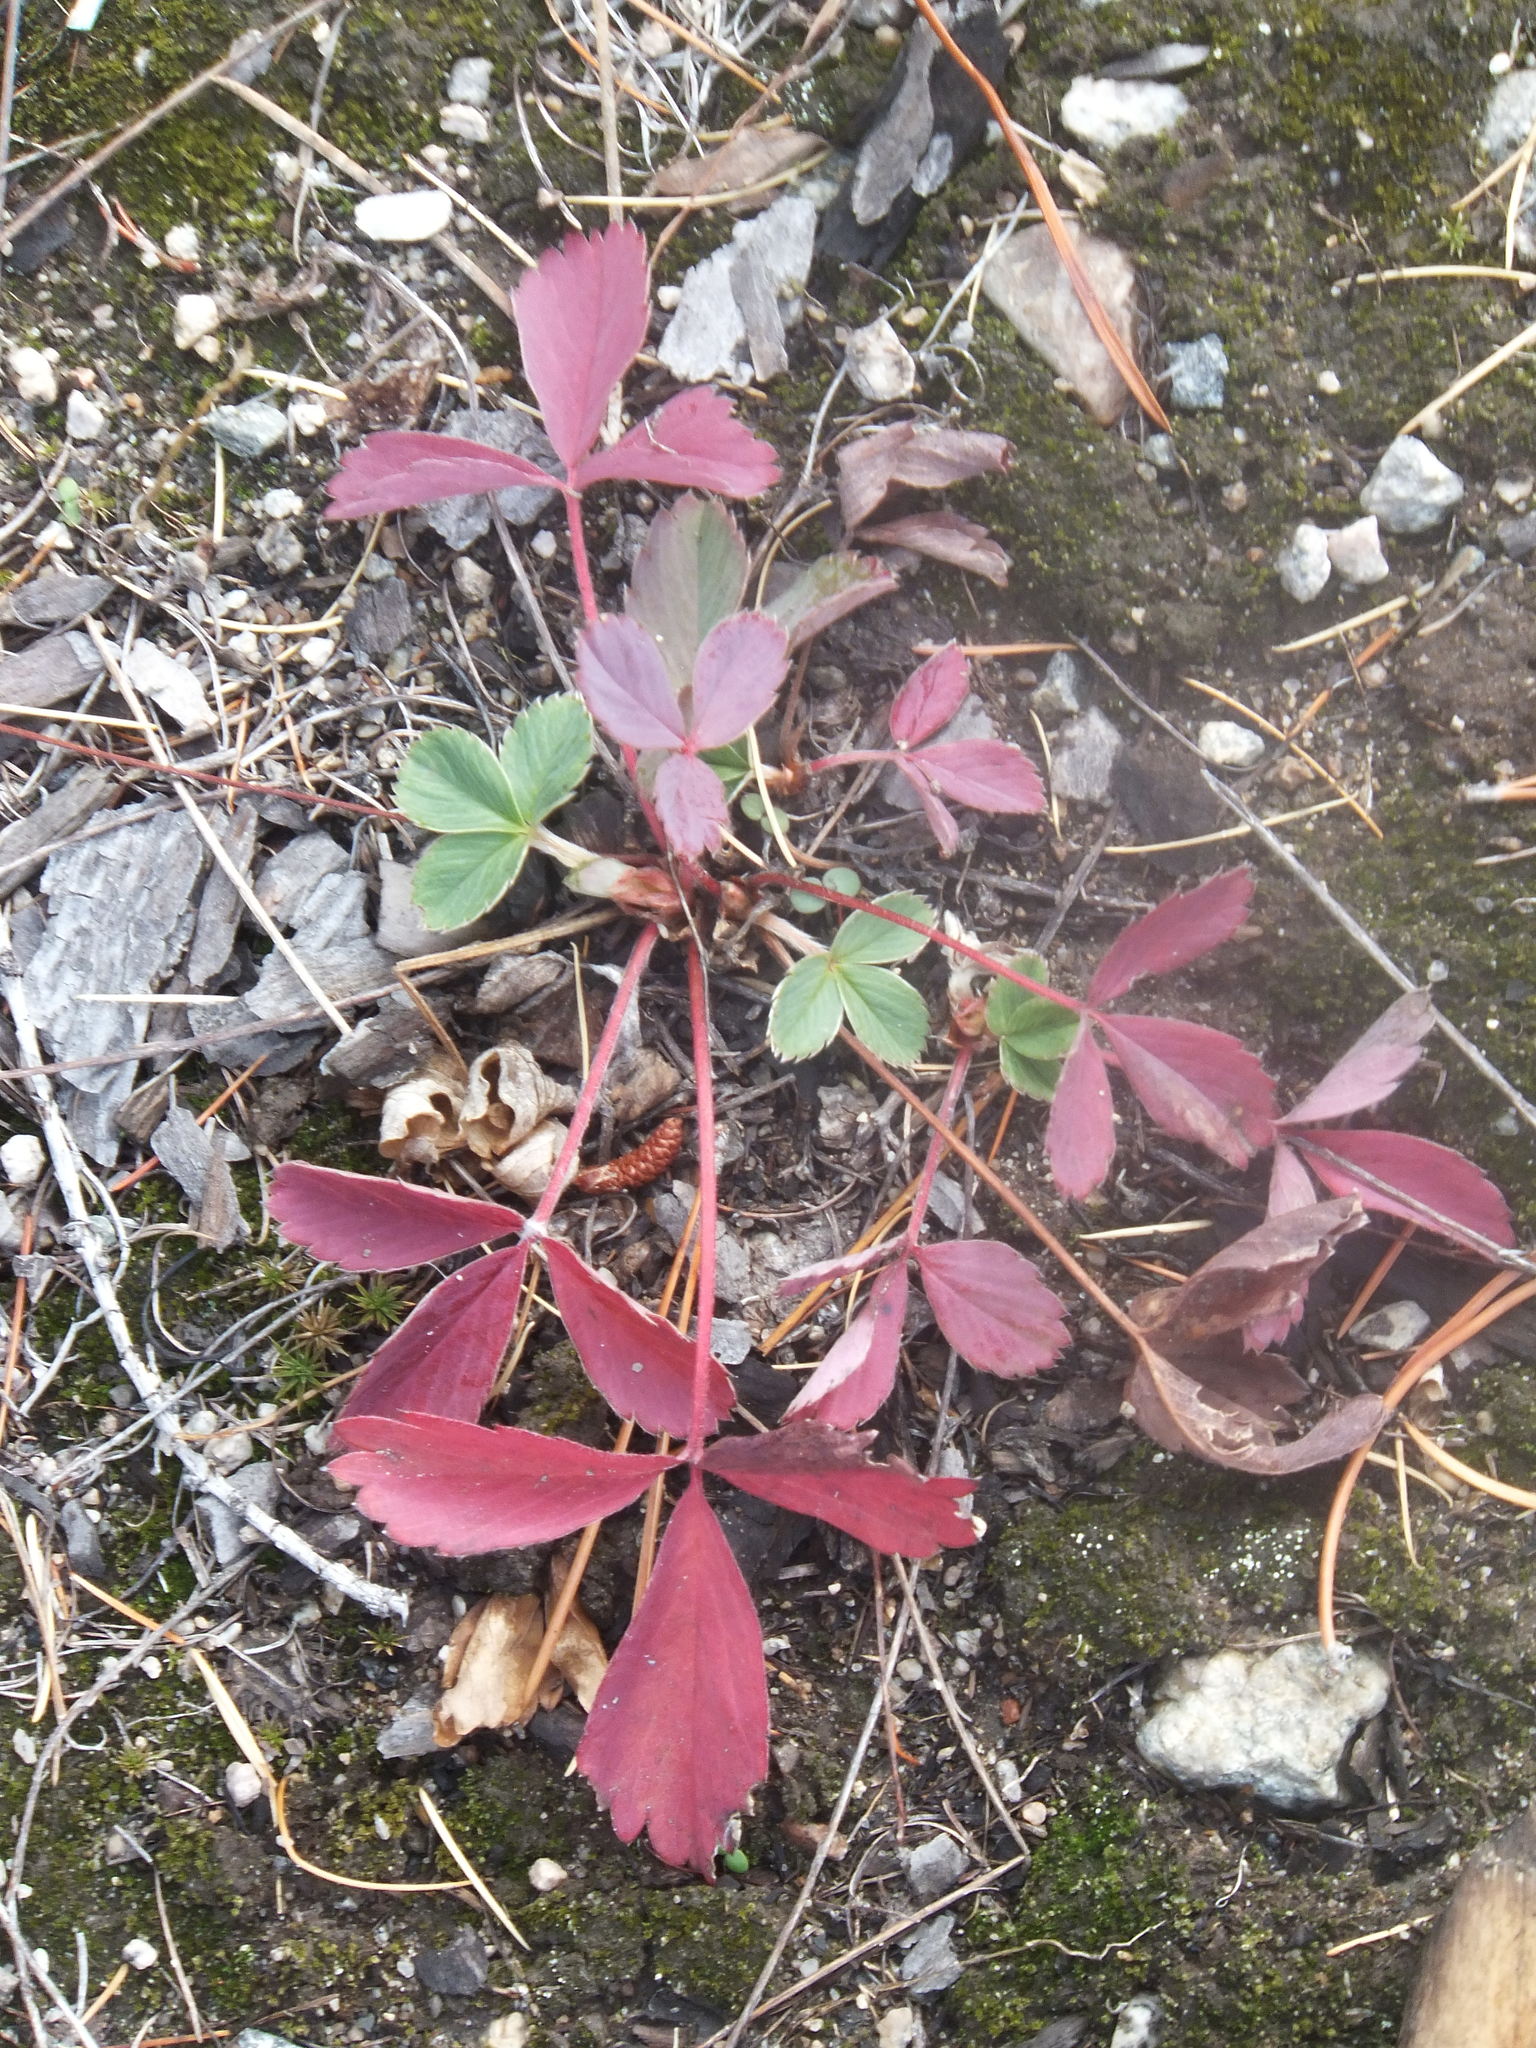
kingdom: Plantae
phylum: Tracheophyta
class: Magnoliopsida
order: Rosales
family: Rosaceae
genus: Fragaria
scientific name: Fragaria virginiana
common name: Thickleaved wild strawberry
